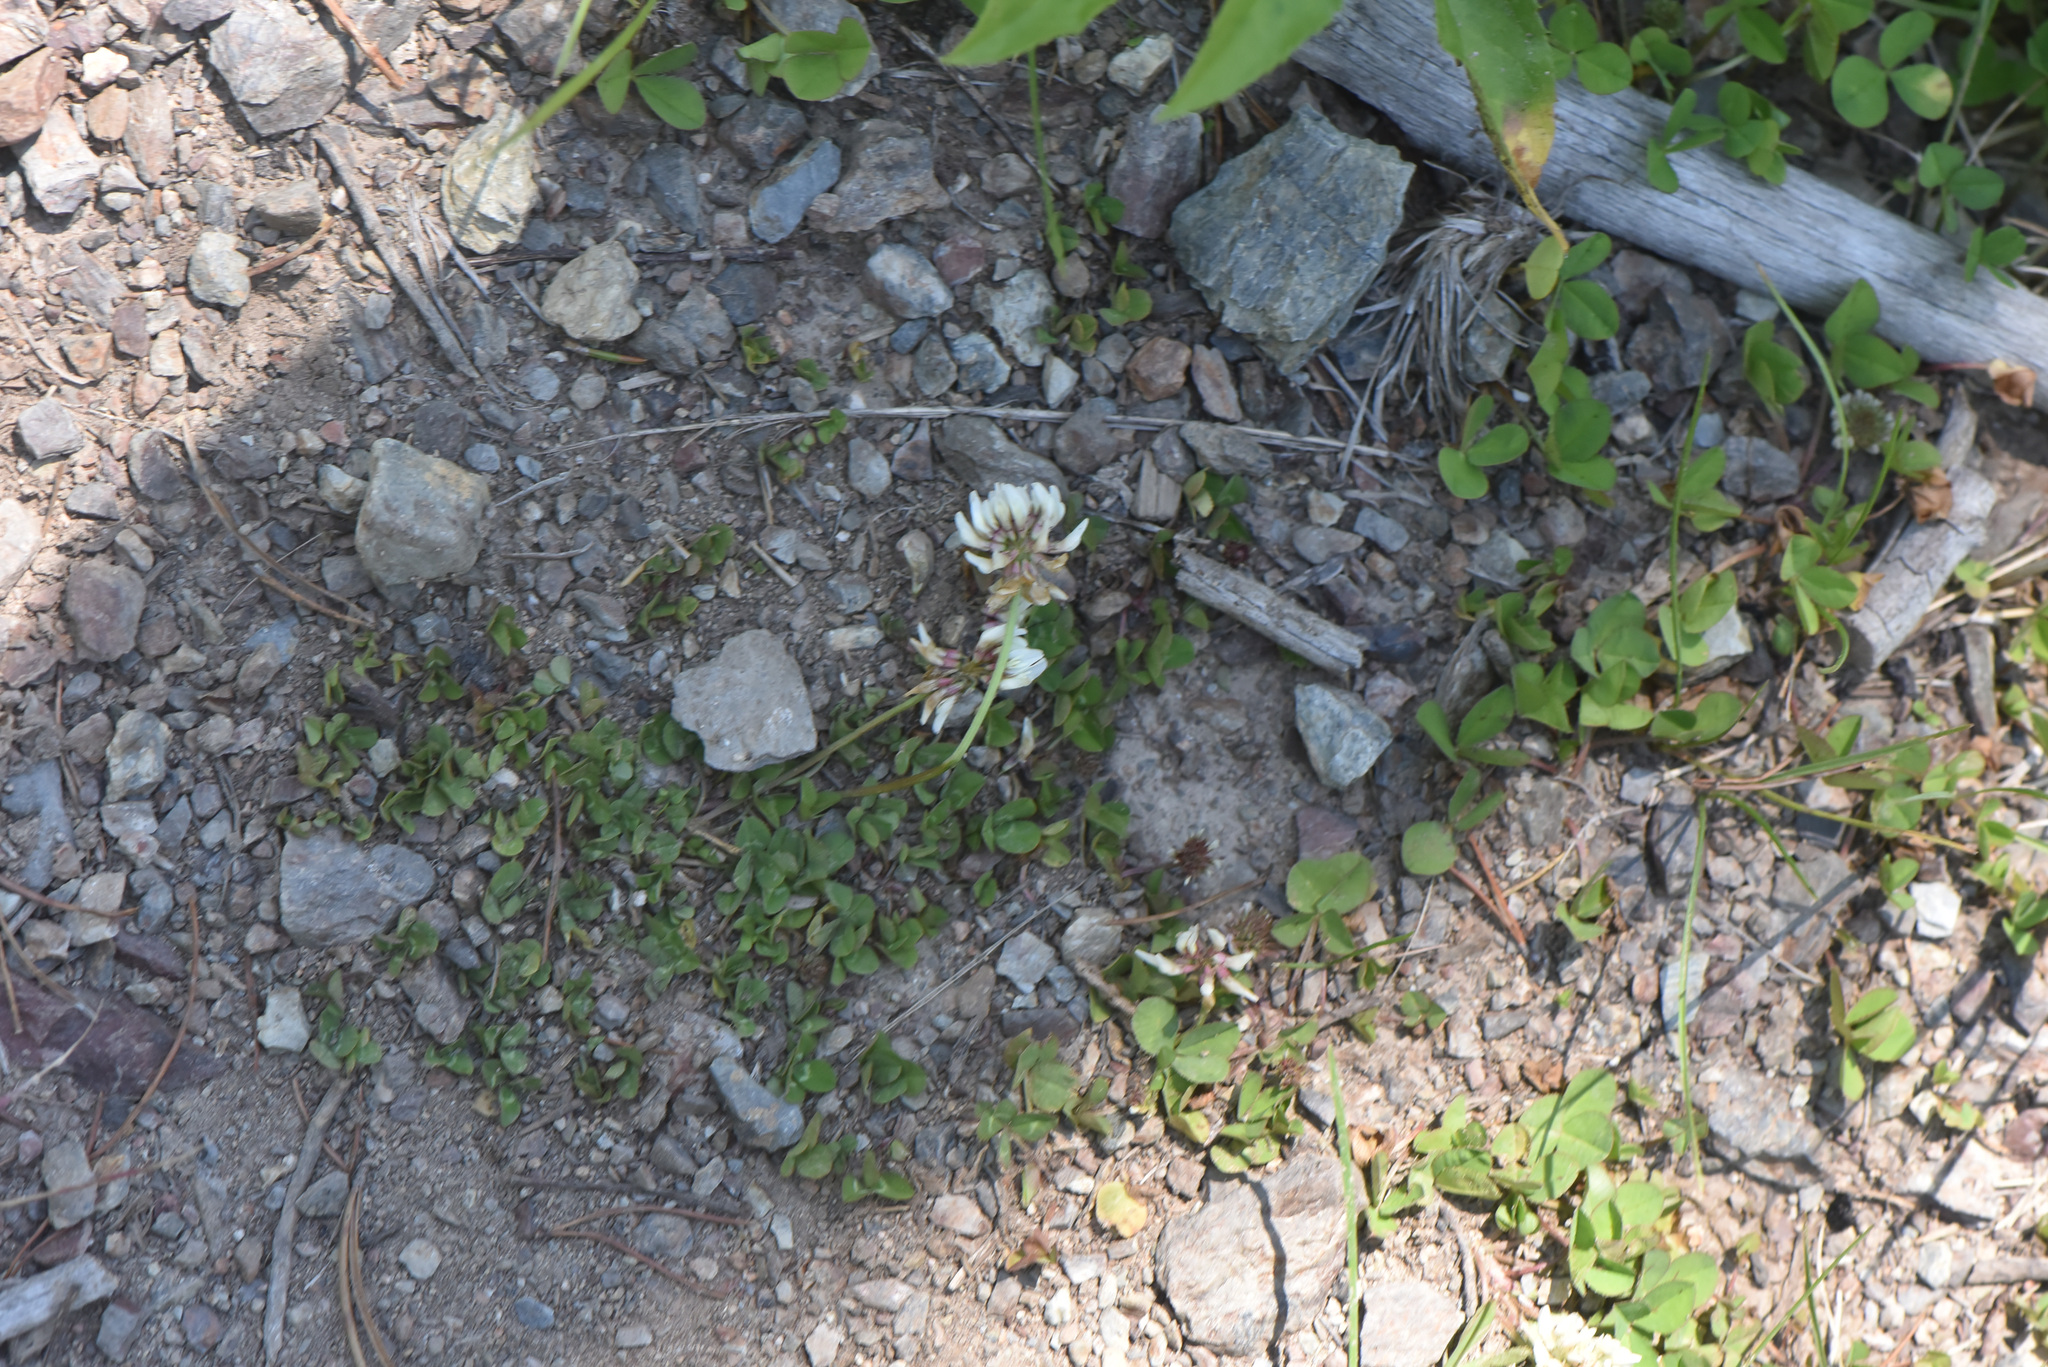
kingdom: Plantae
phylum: Tracheophyta
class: Magnoliopsida
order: Fabales
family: Fabaceae
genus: Trifolium
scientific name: Trifolium repens
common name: White clover
